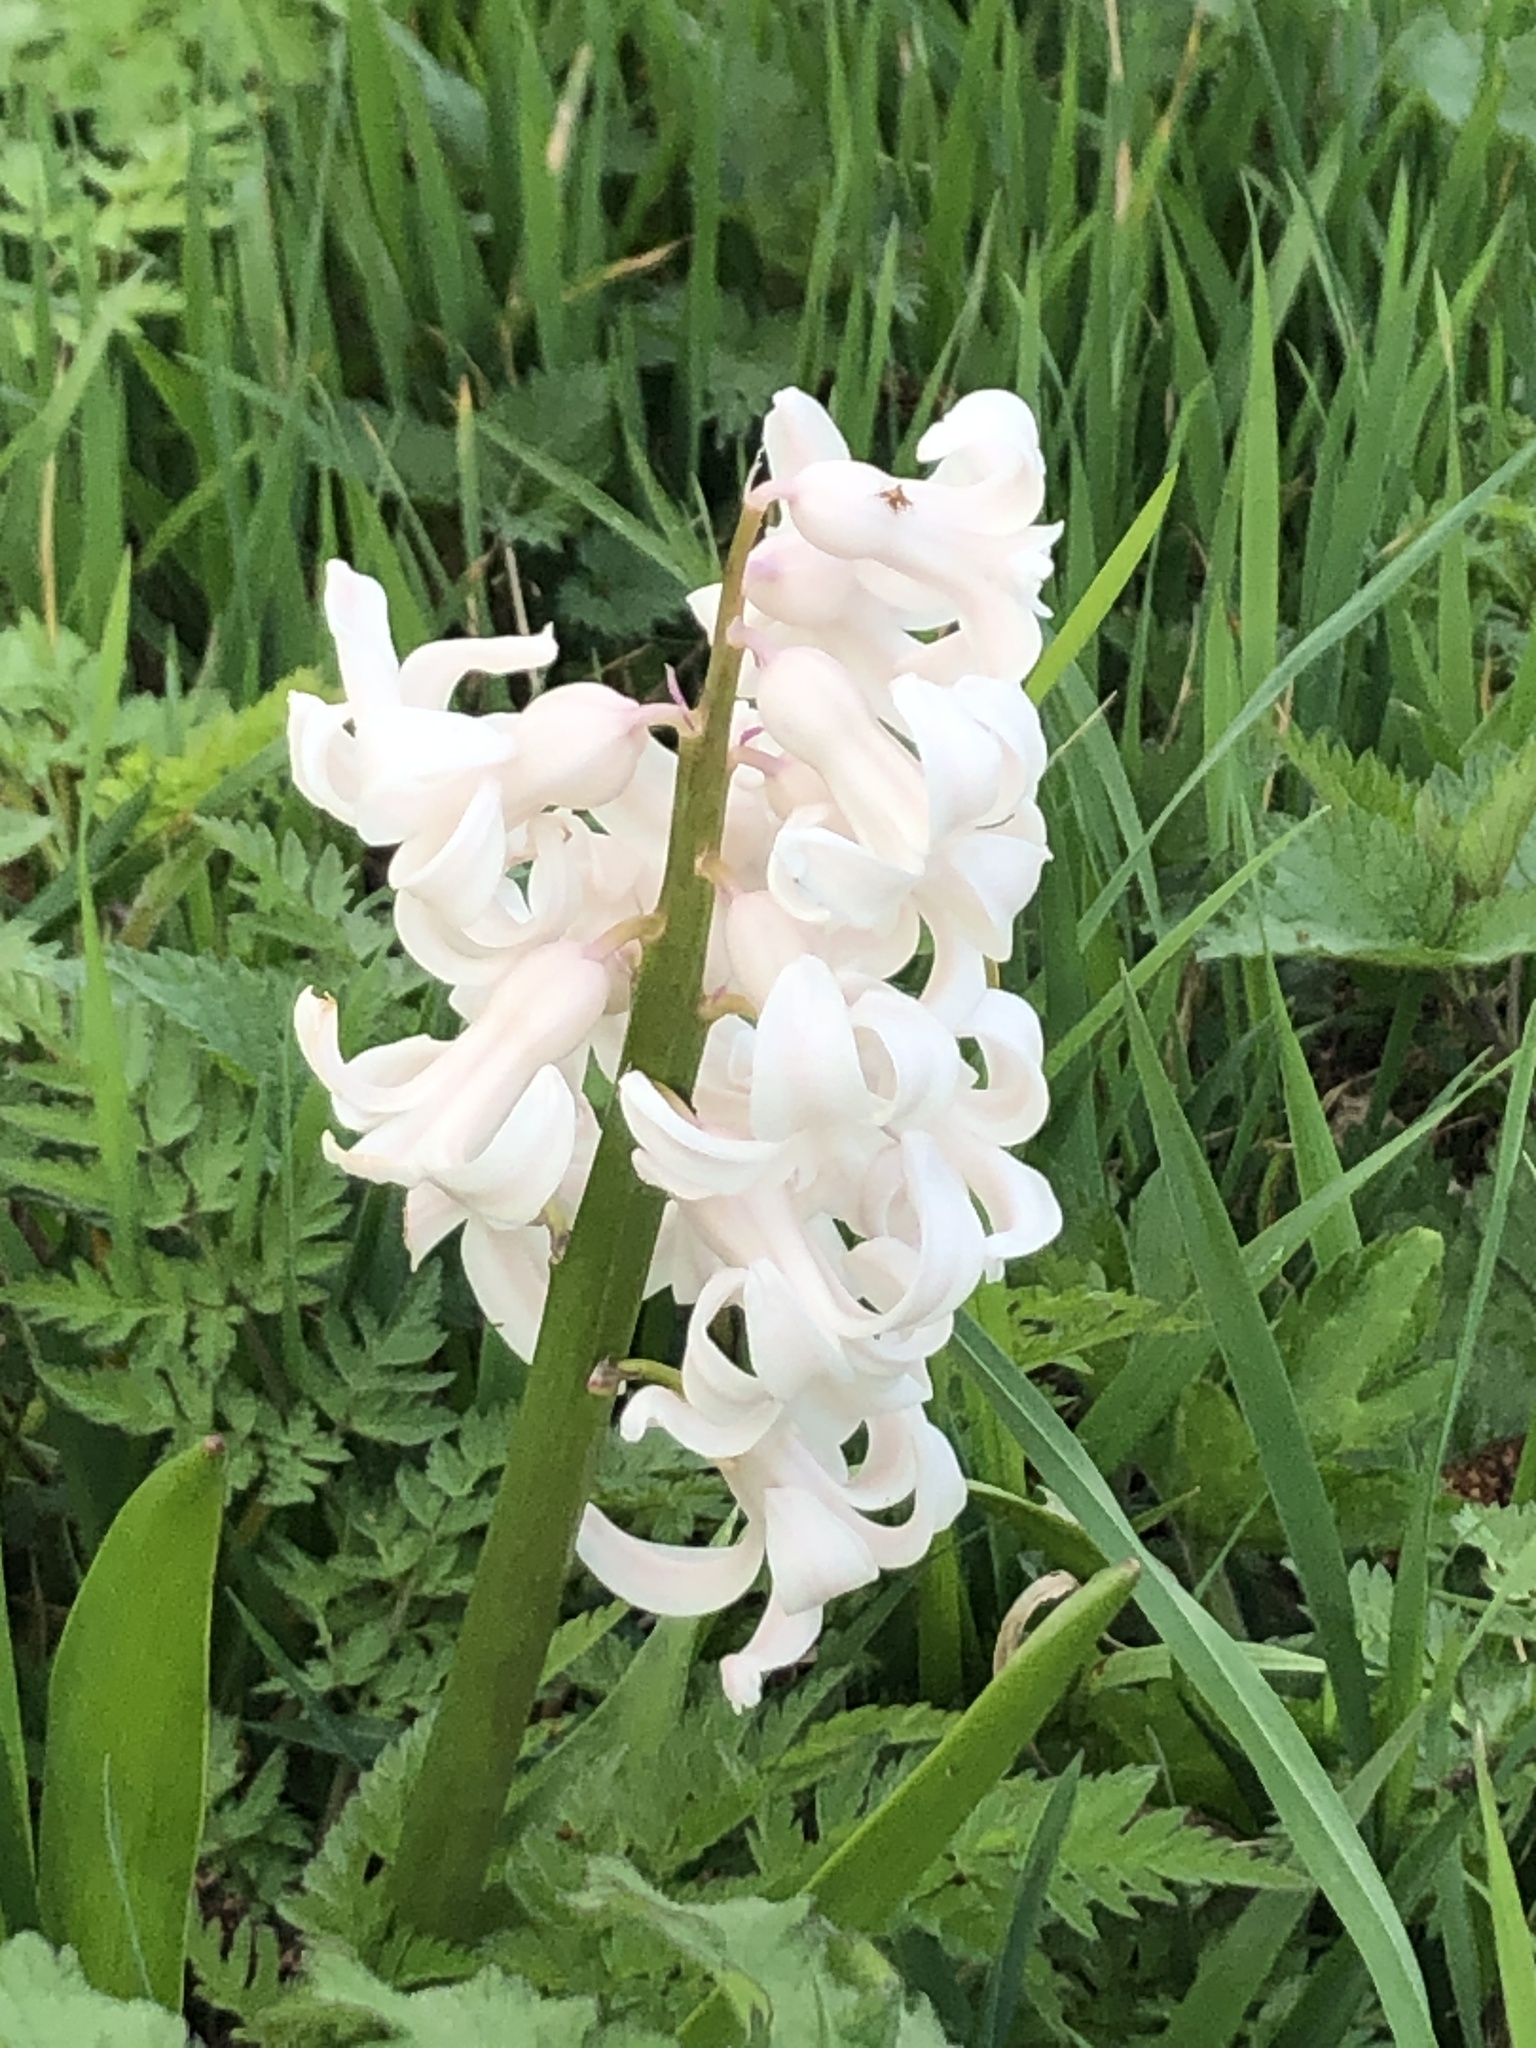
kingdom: Plantae
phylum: Tracheophyta
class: Liliopsida
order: Asparagales
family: Asparagaceae
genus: Hyacinthus
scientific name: Hyacinthus orientalis
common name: Hyacinth
